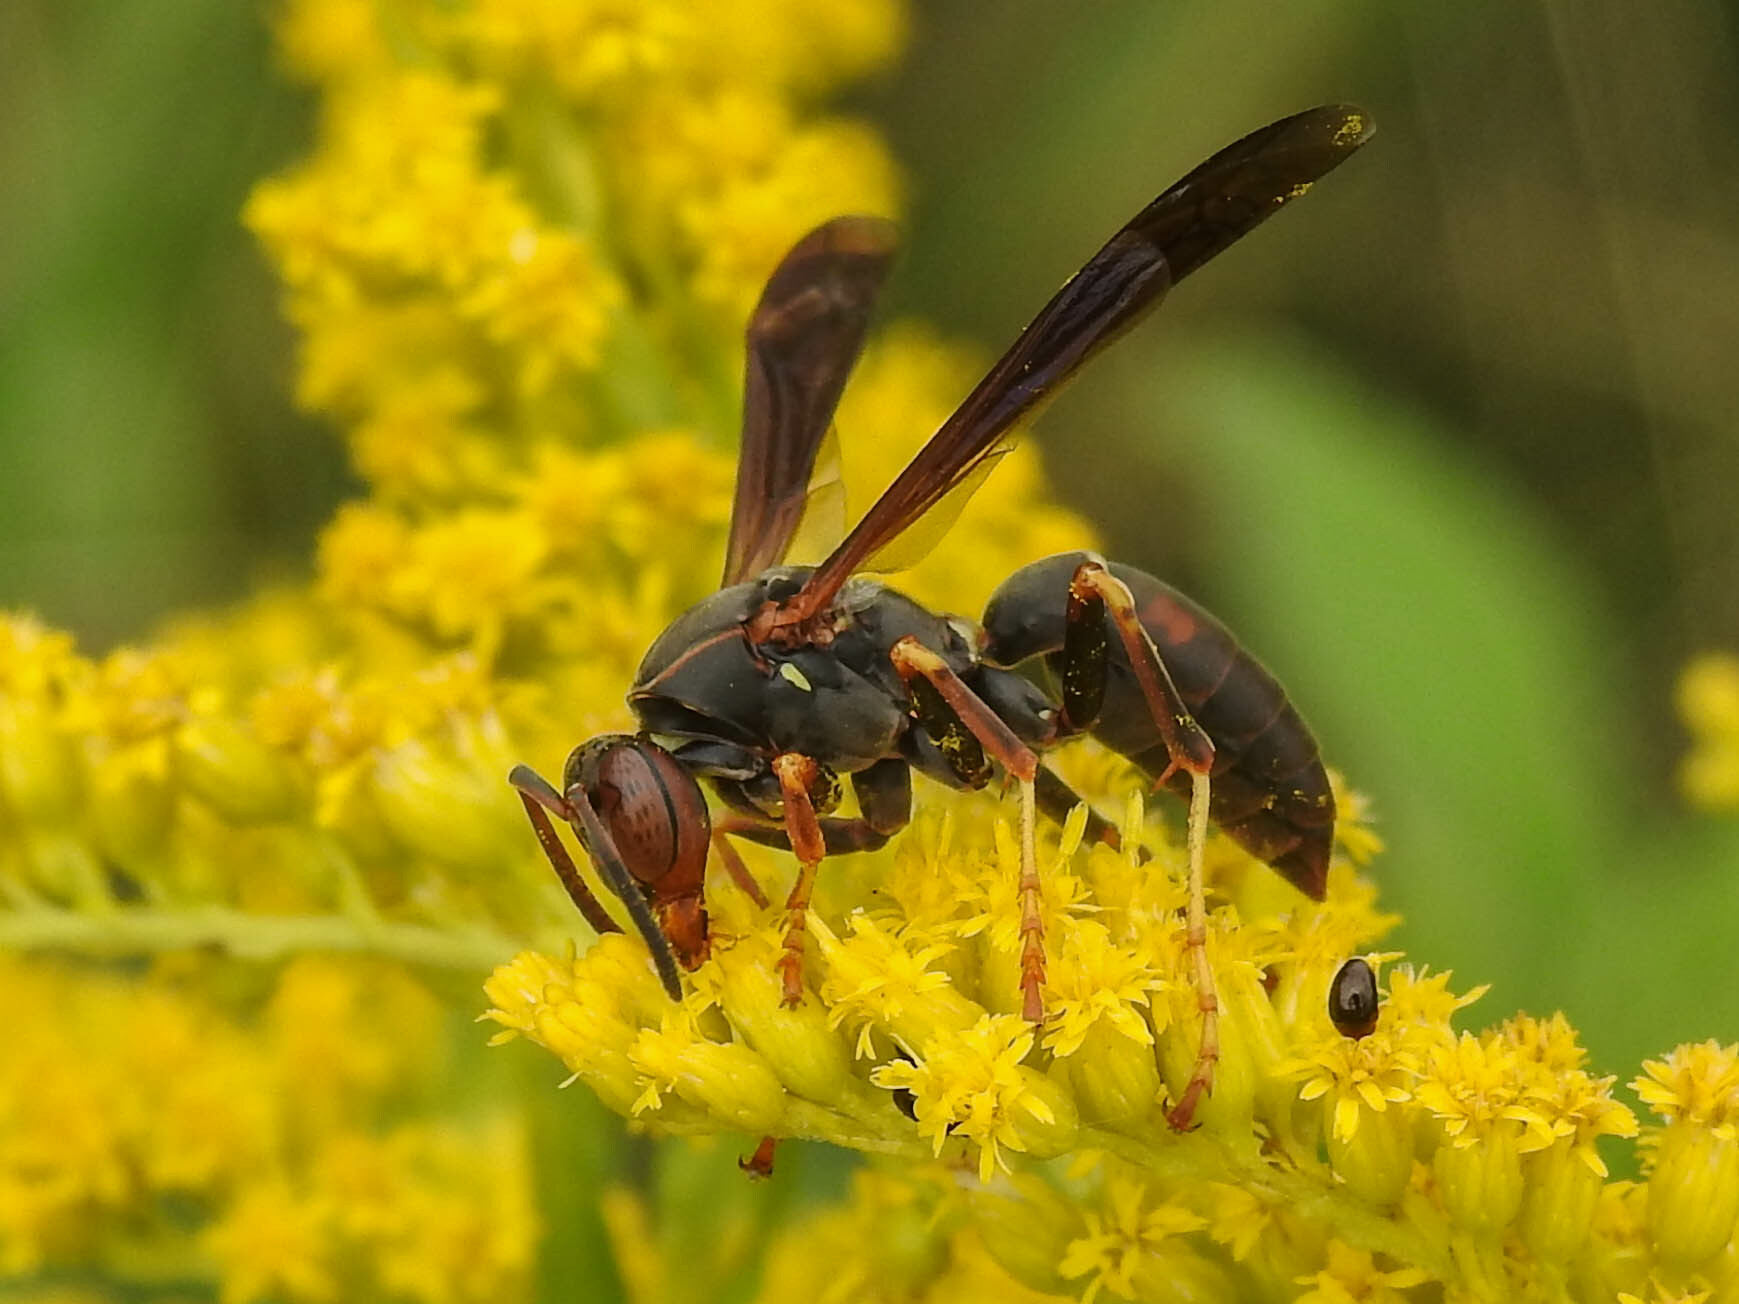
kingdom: Animalia
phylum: Arthropoda
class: Insecta
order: Hymenoptera
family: Eumenidae
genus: Polistes
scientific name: Polistes fuscatus
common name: Dark paper wasp
